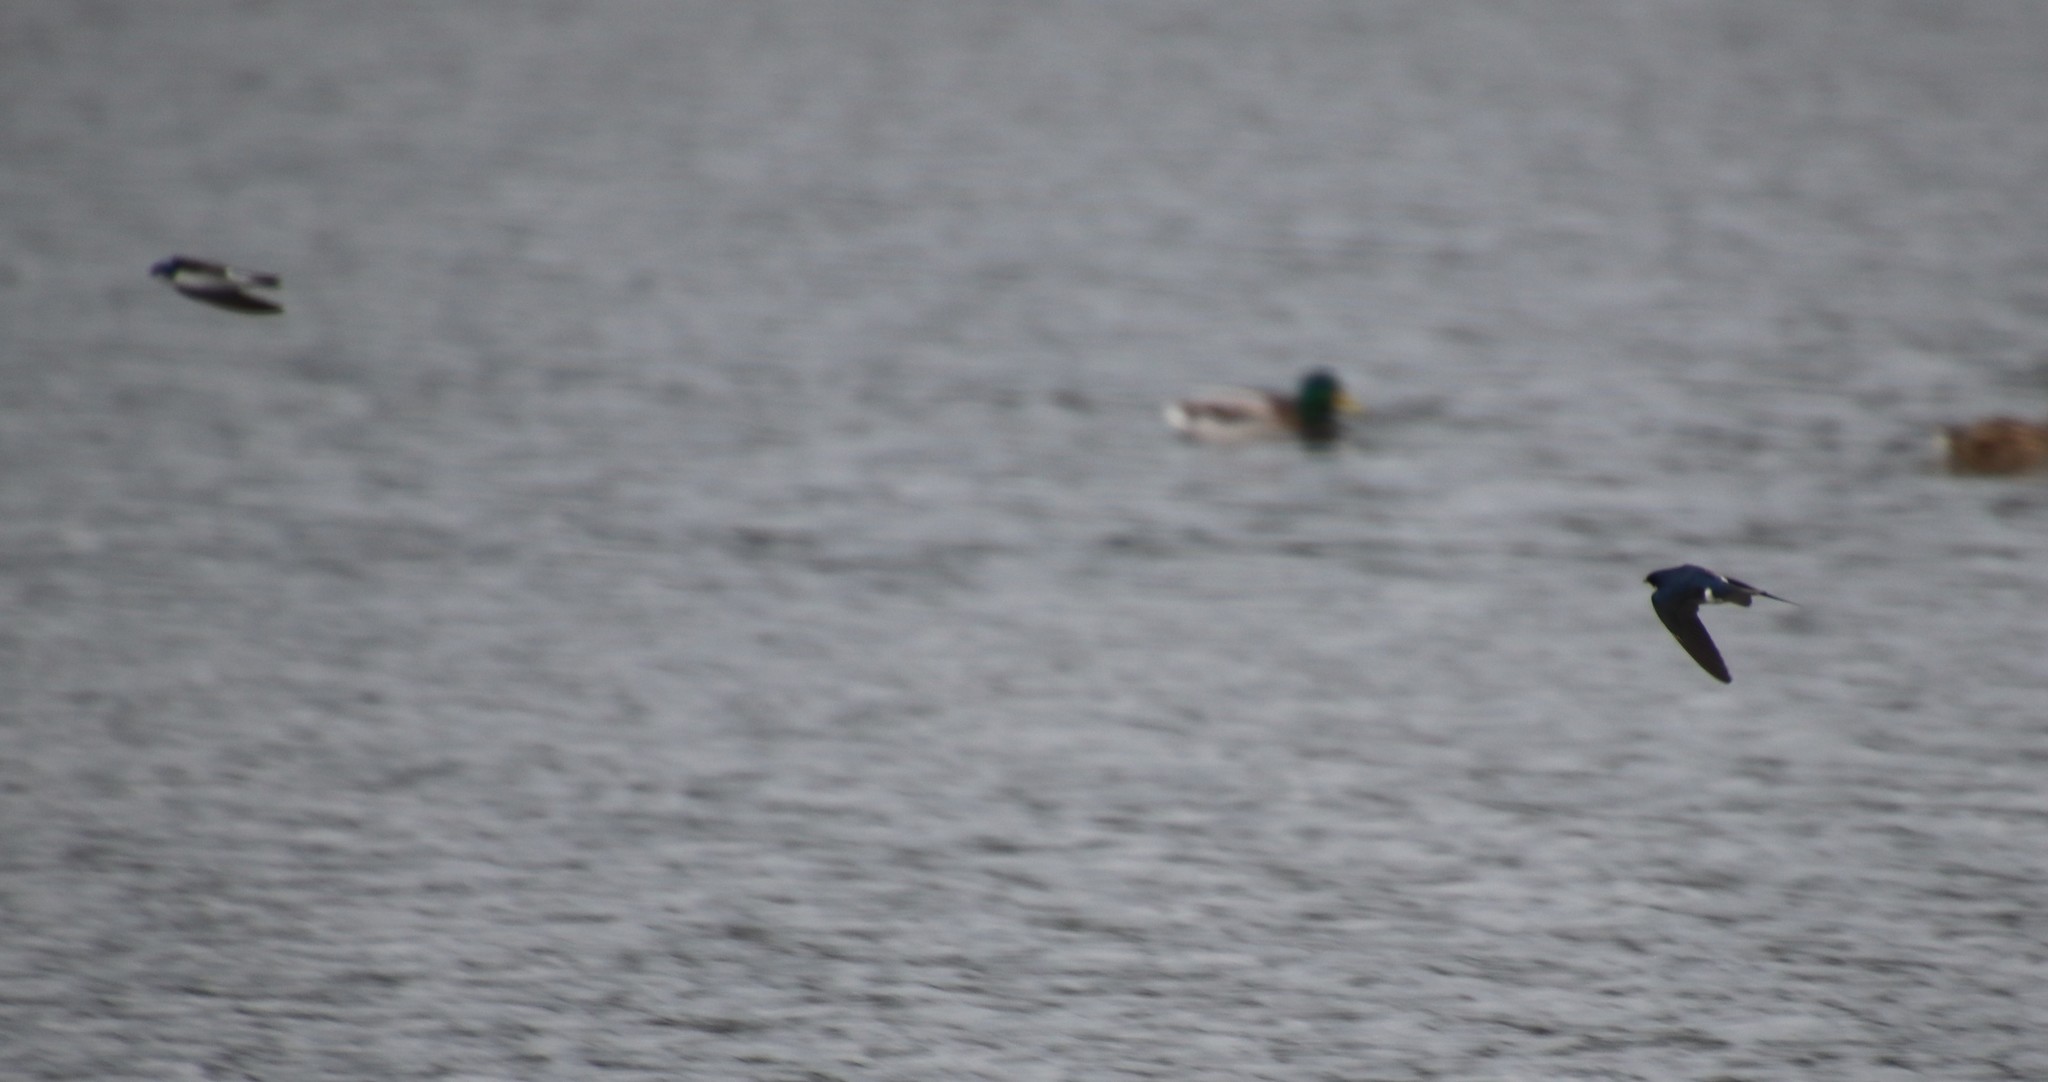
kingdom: Animalia
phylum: Chordata
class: Aves
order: Passeriformes
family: Hirundinidae
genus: Tachycineta
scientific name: Tachycineta bicolor
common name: Tree swallow
